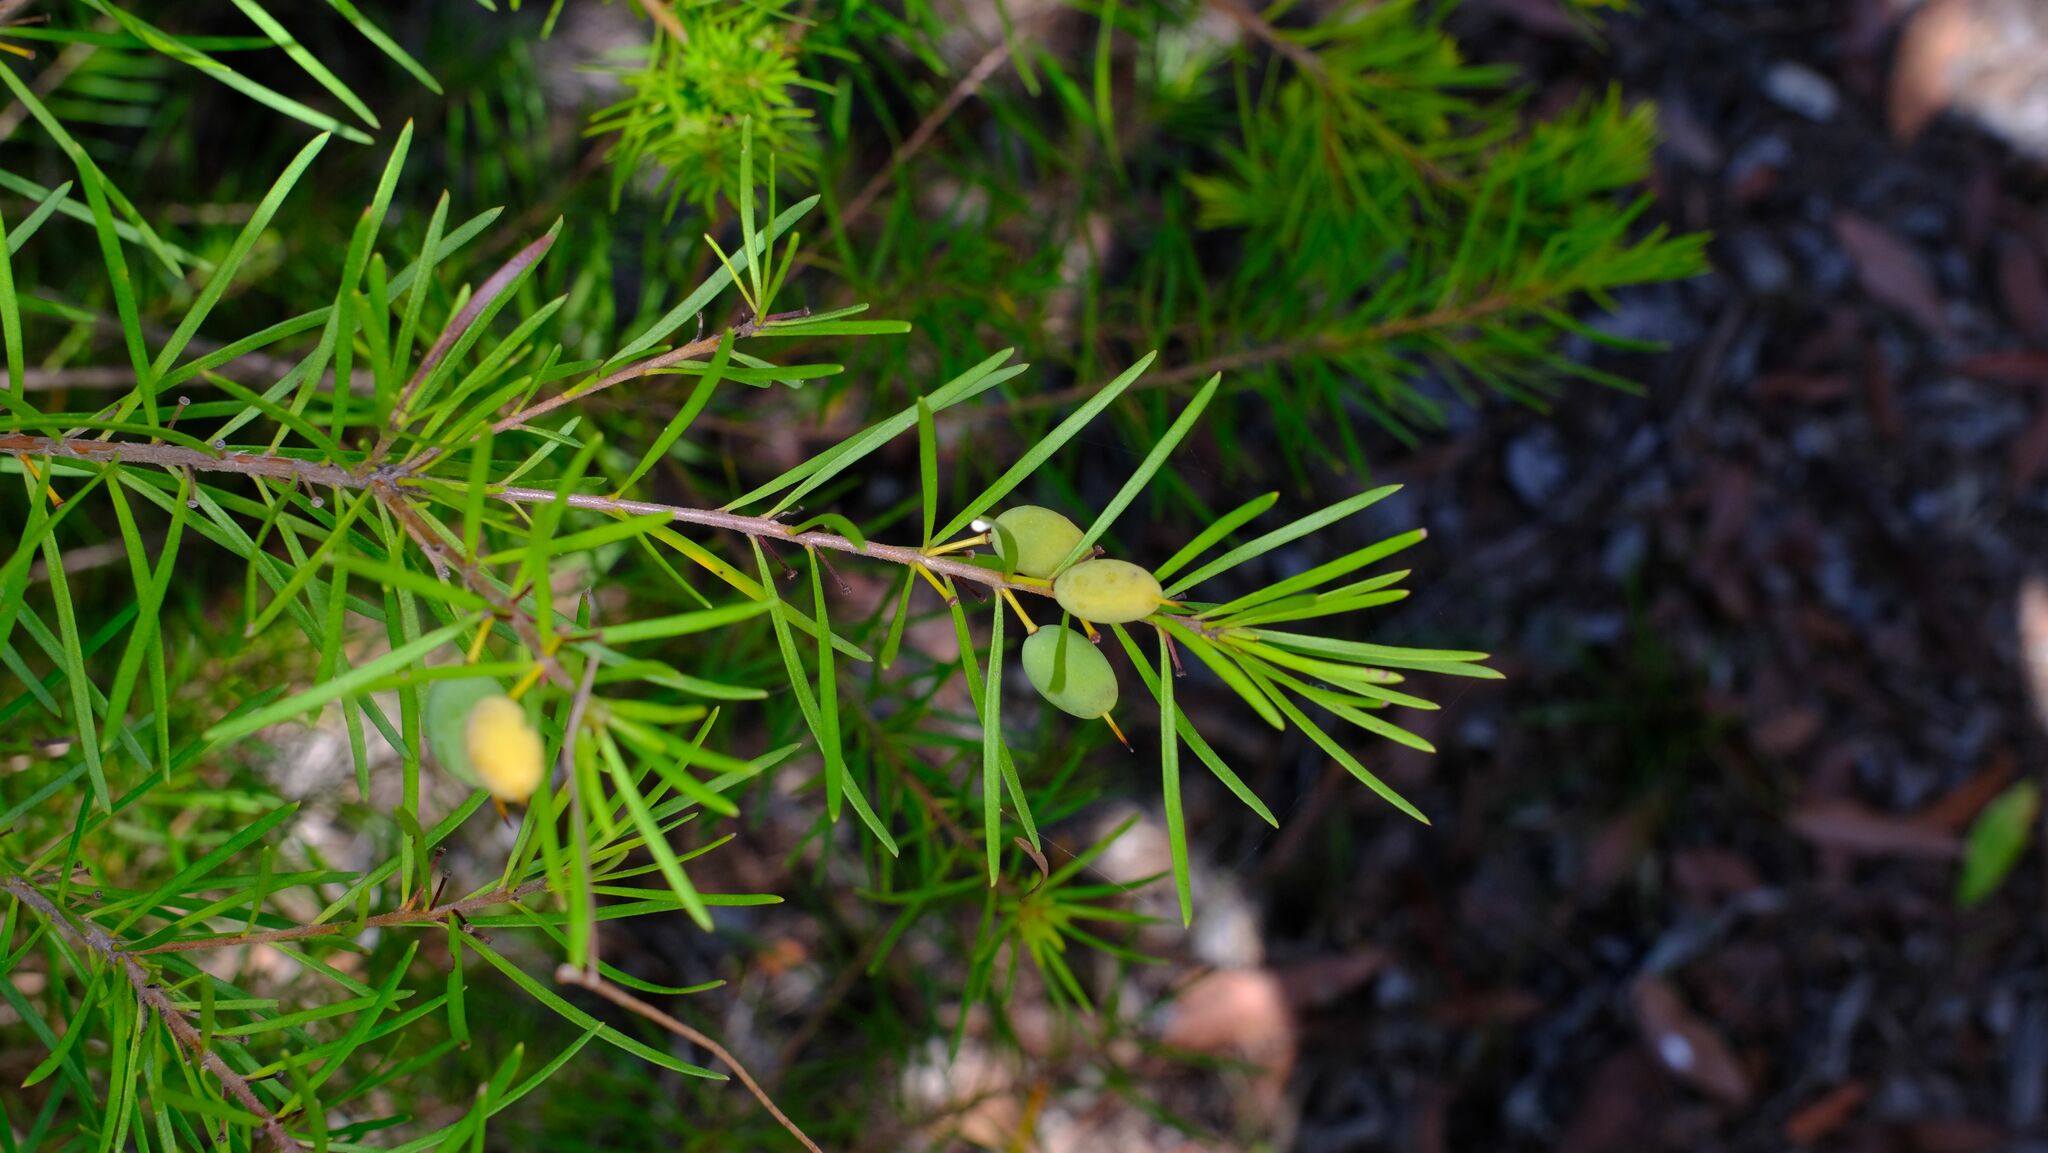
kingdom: Plantae
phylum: Tracheophyta
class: Magnoliopsida
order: Proteales
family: Proteaceae
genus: Persoonia
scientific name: Persoonia virgata
